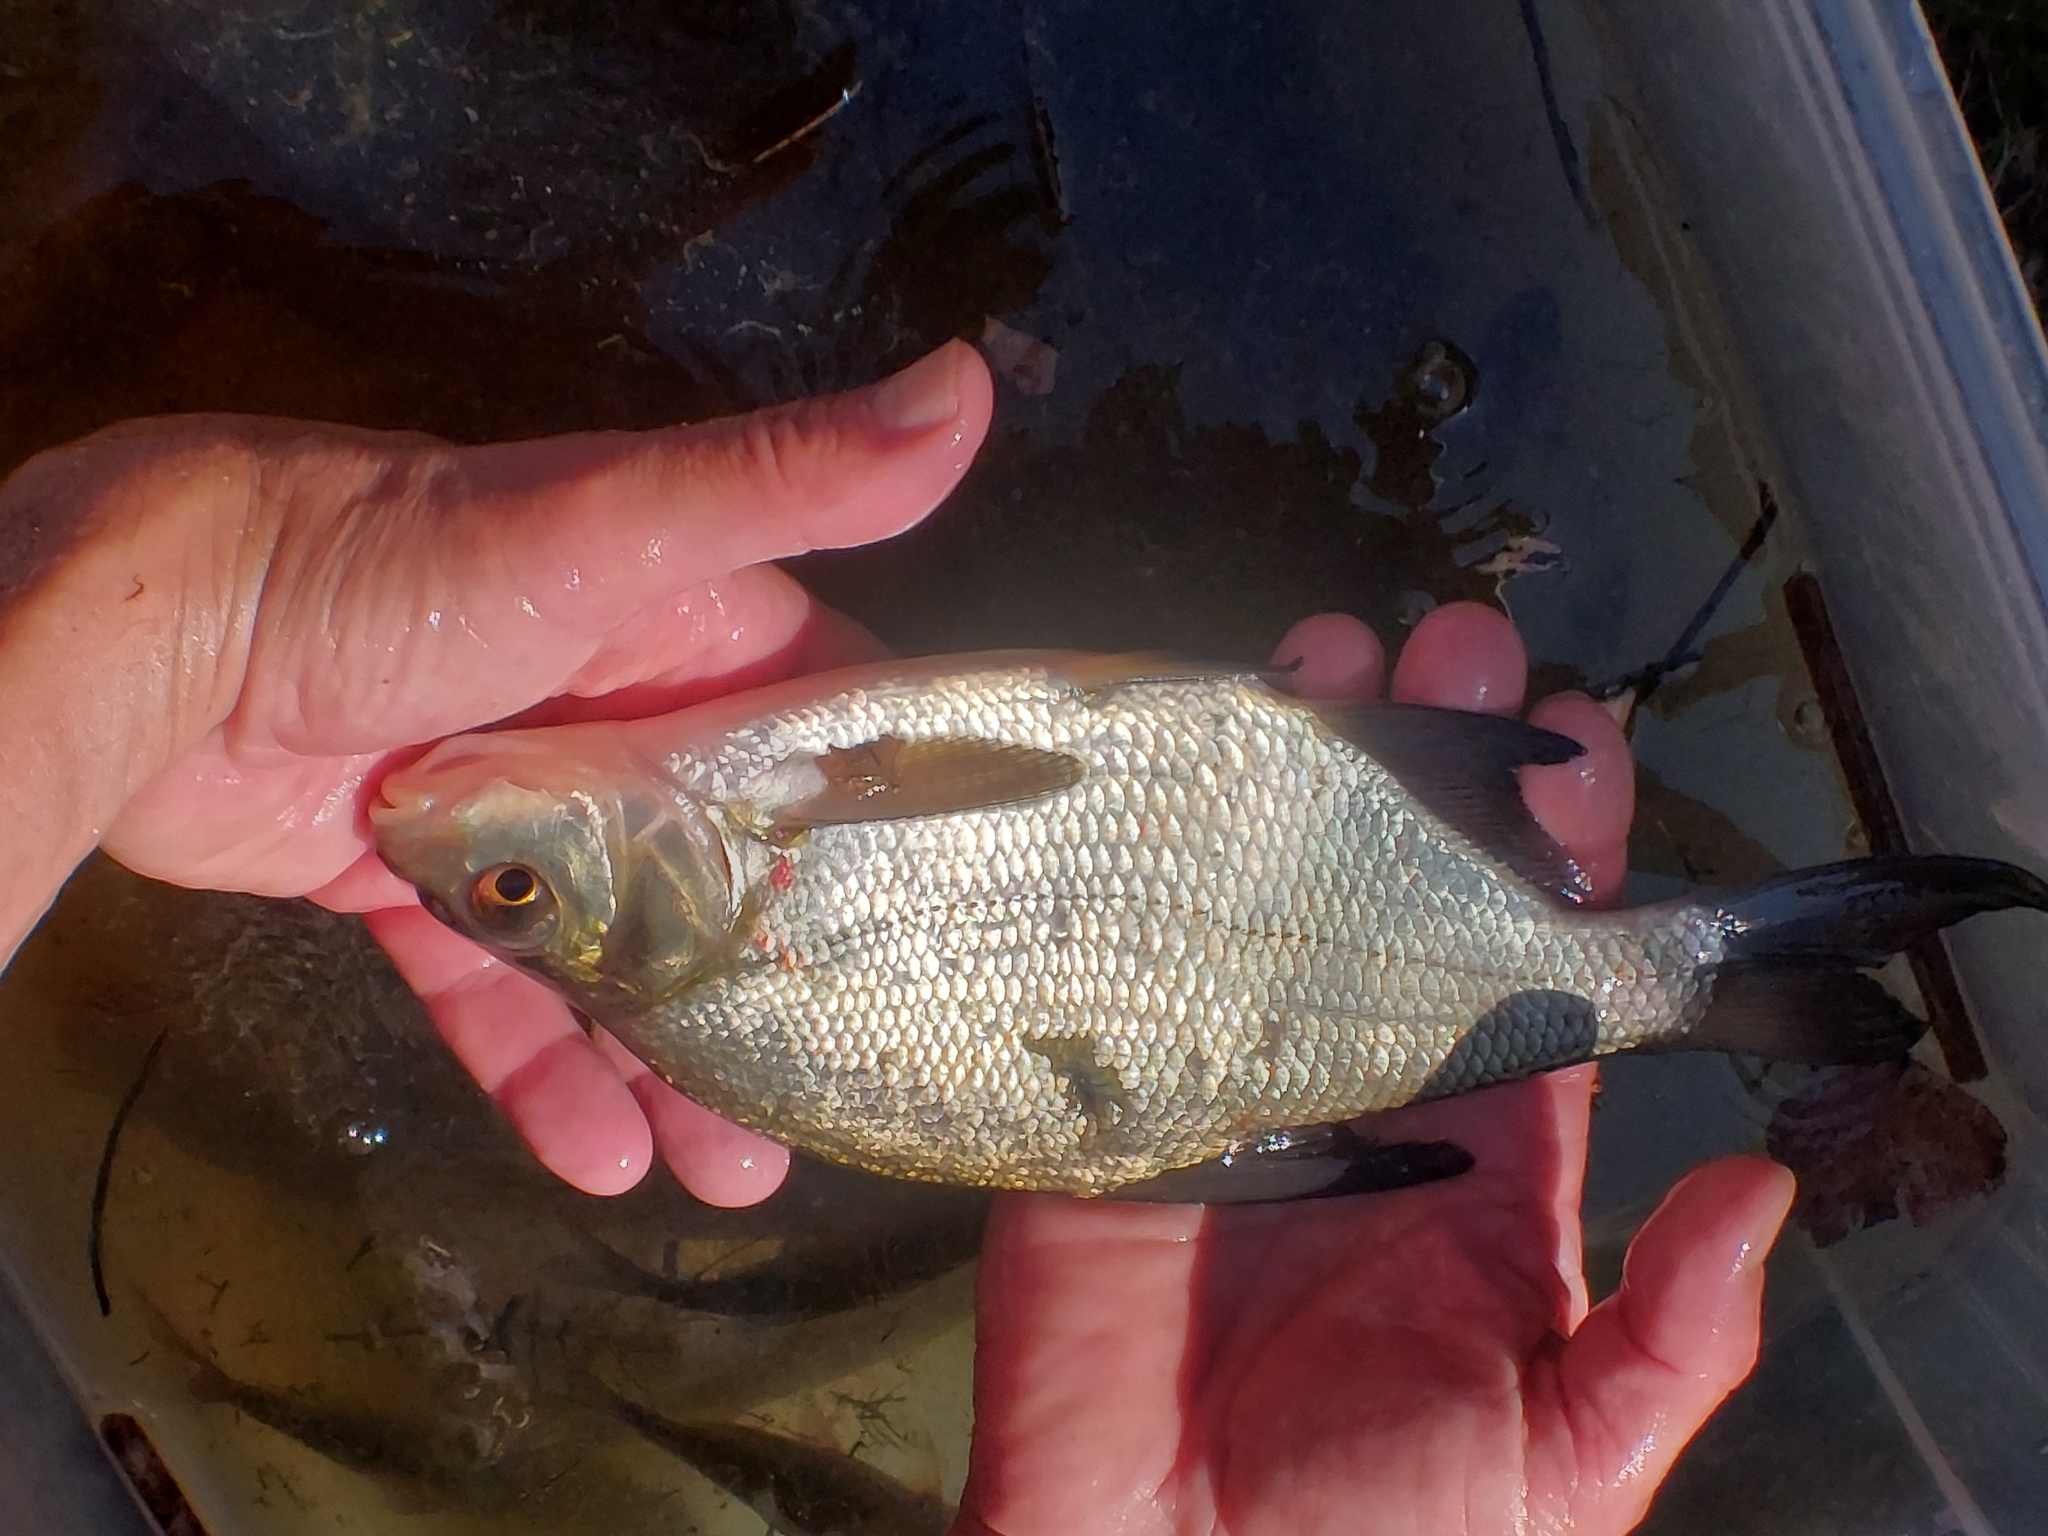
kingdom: Animalia
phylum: Chordata
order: Cypriniformes
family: Cyprinidae
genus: Abramis
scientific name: Abramis brama
